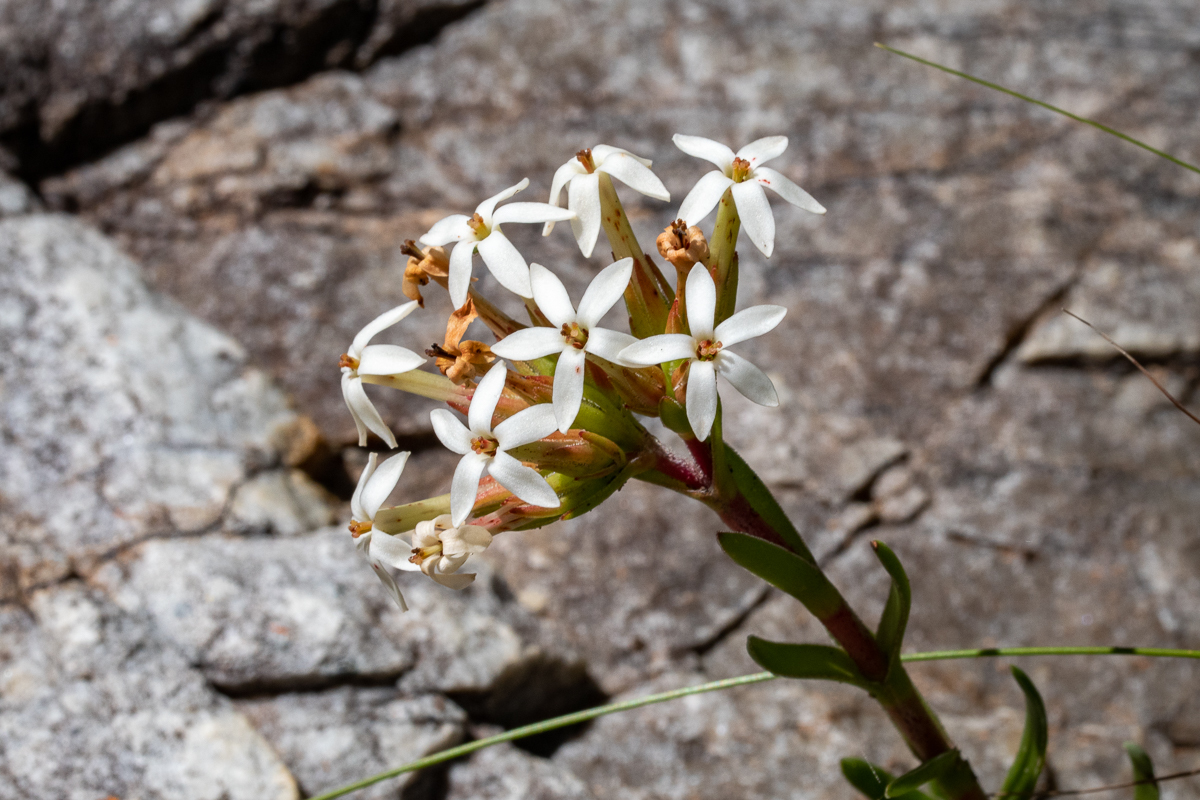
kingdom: Plantae
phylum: Tracheophyta
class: Magnoliopsida
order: Saxifragales
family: Crassulaceae
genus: Crassula
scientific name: Crassula fascicularis
